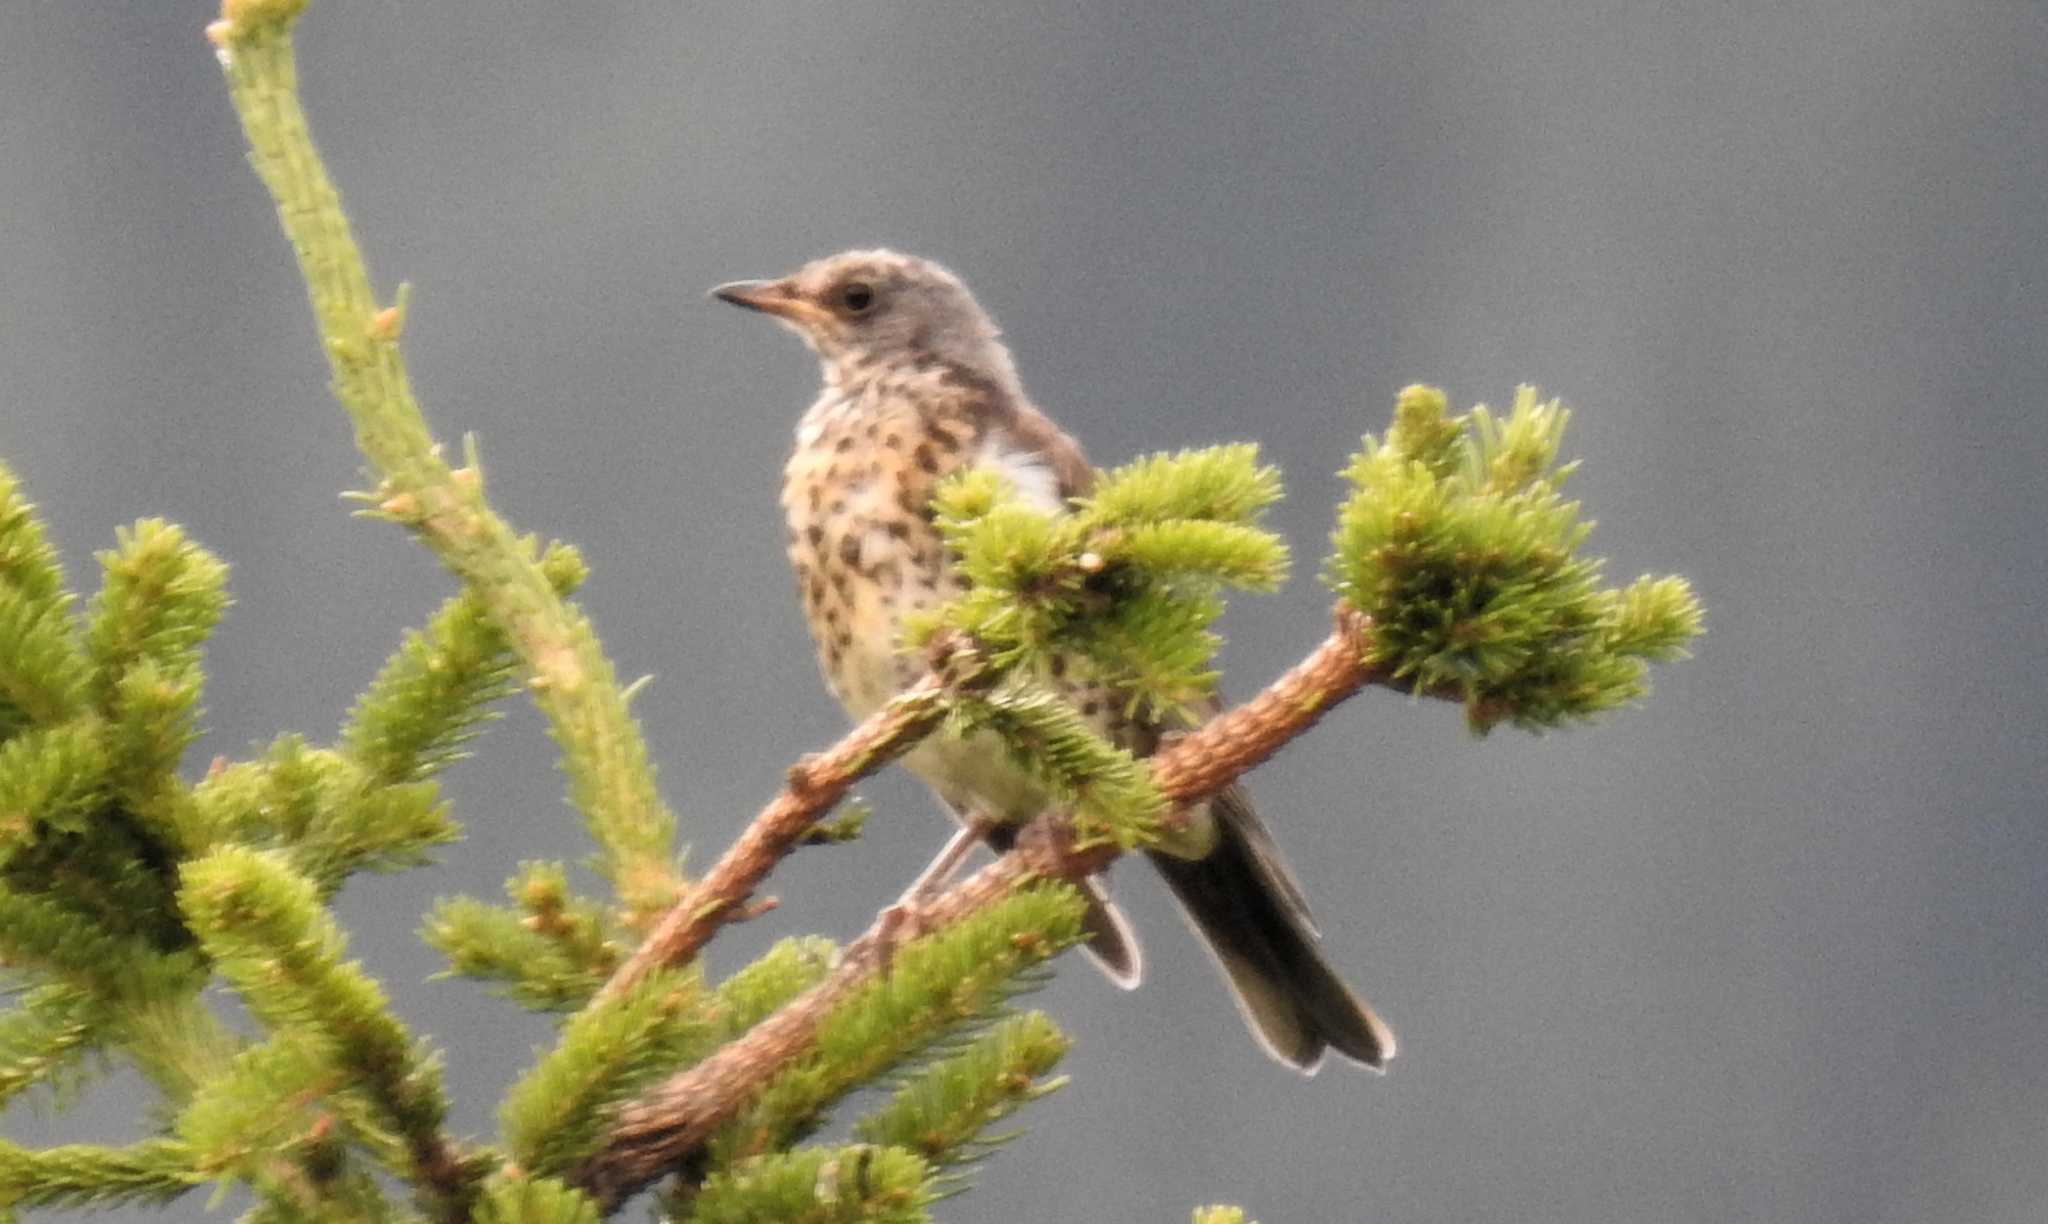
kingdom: Animalia
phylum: Chordata
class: Aves
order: Passeriformes
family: Turdidae
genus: Turdus
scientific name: Turdus pilaris
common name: Fieldfare
